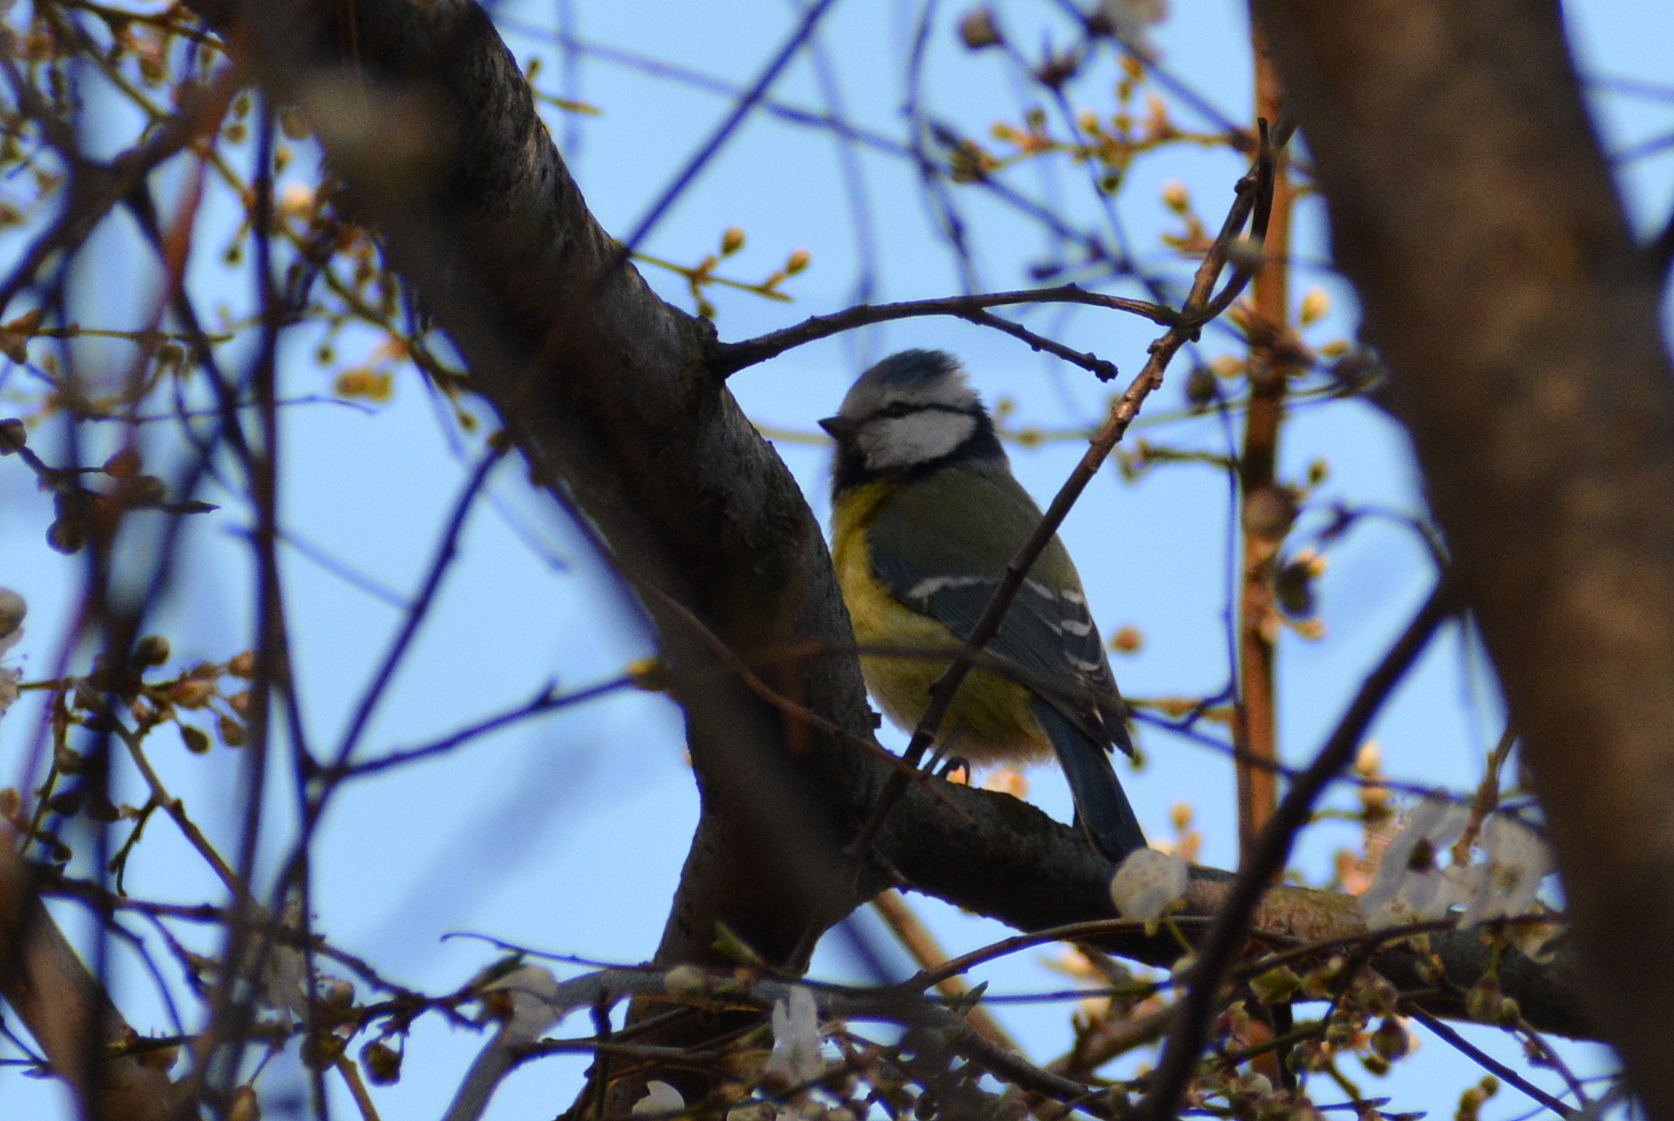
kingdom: Animalia
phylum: Chordata
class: Aves
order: Passeriformes
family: Paridae
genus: Cyanistes
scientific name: Cyanistes caeruleus
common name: Eurasian blue tit
